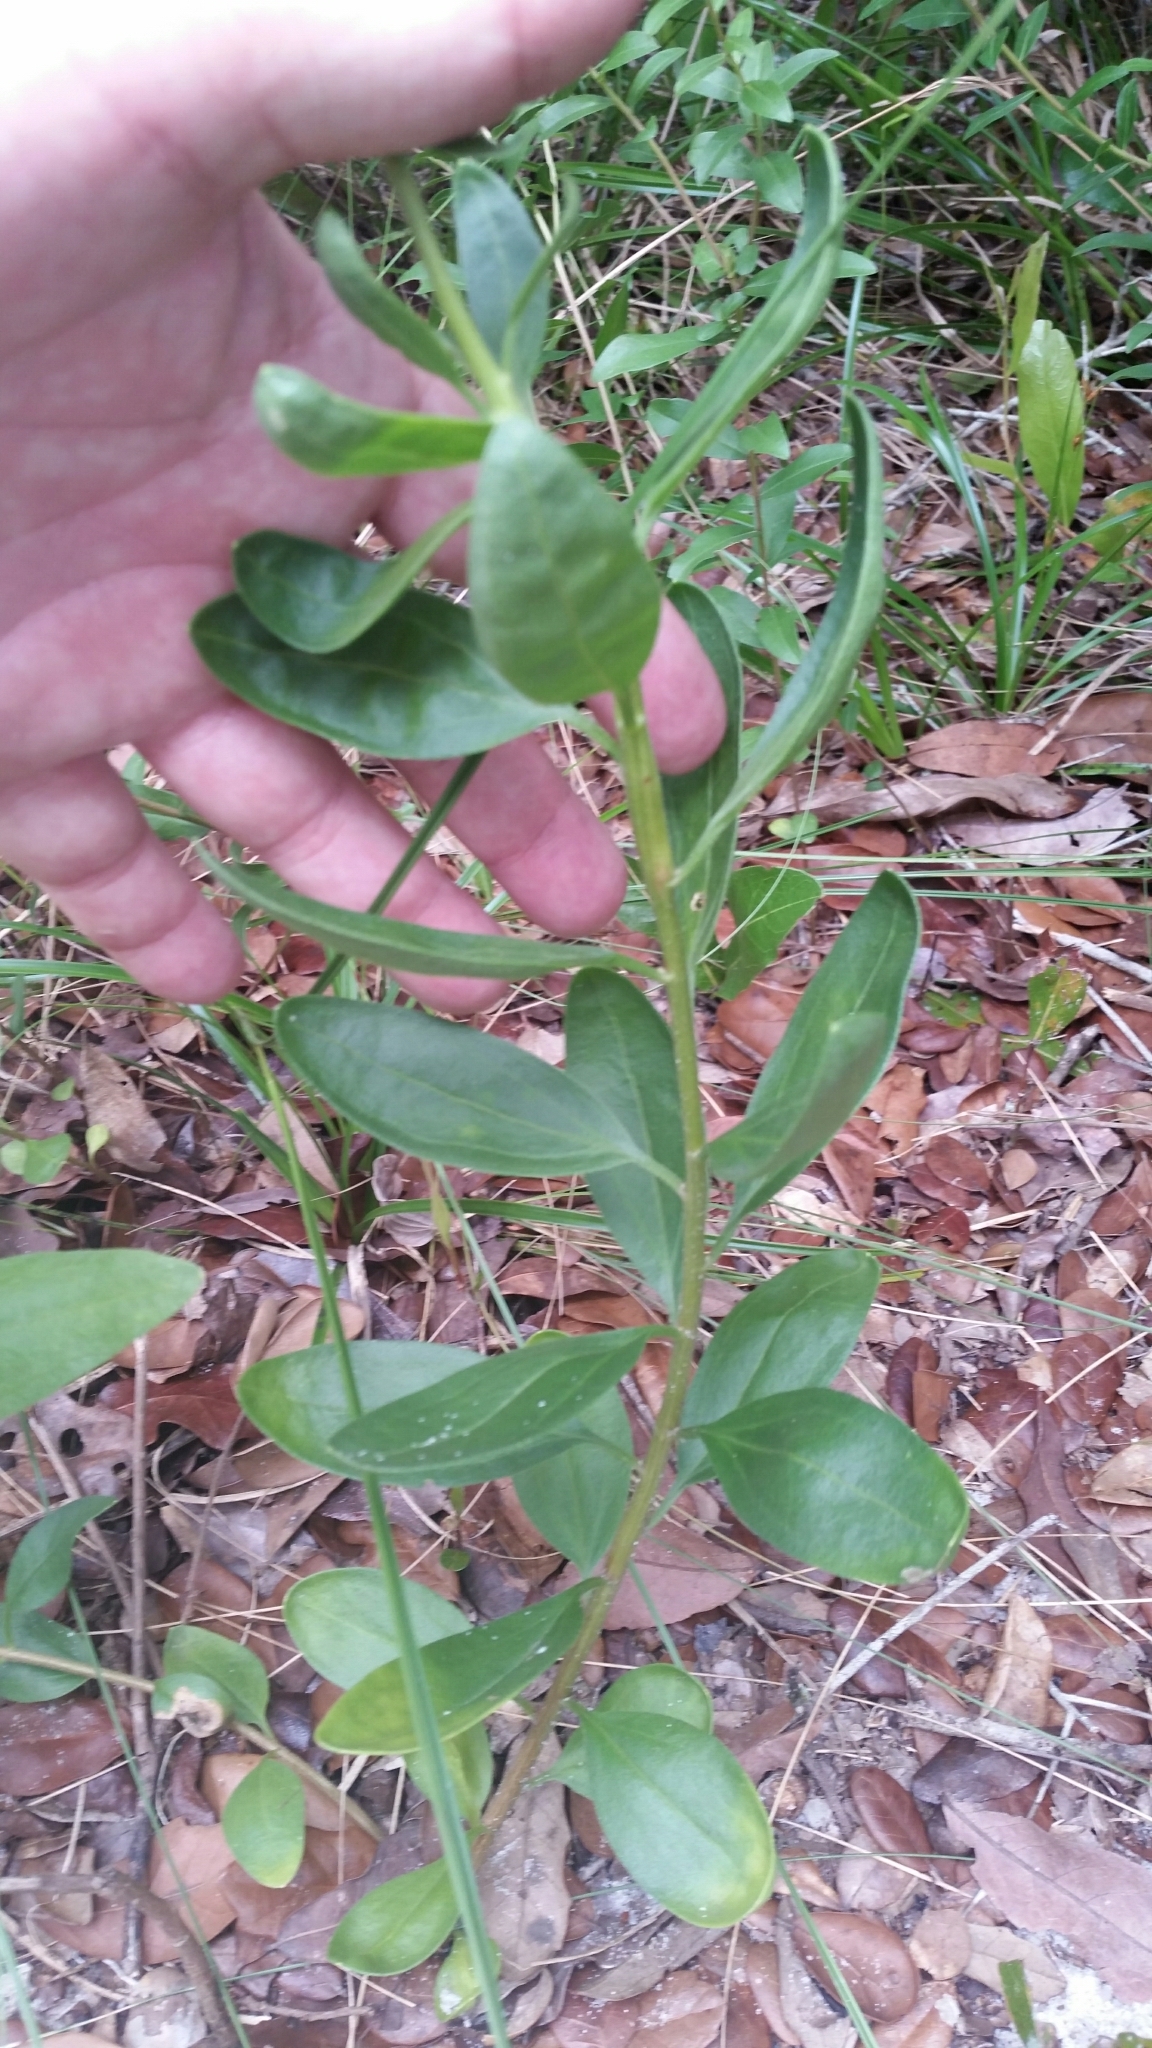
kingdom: Plantae
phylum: Tracheophyta
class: Magnoliopsida
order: Asterales
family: Asteraceae
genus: Palafoxia
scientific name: Palafoxia integrifolia
